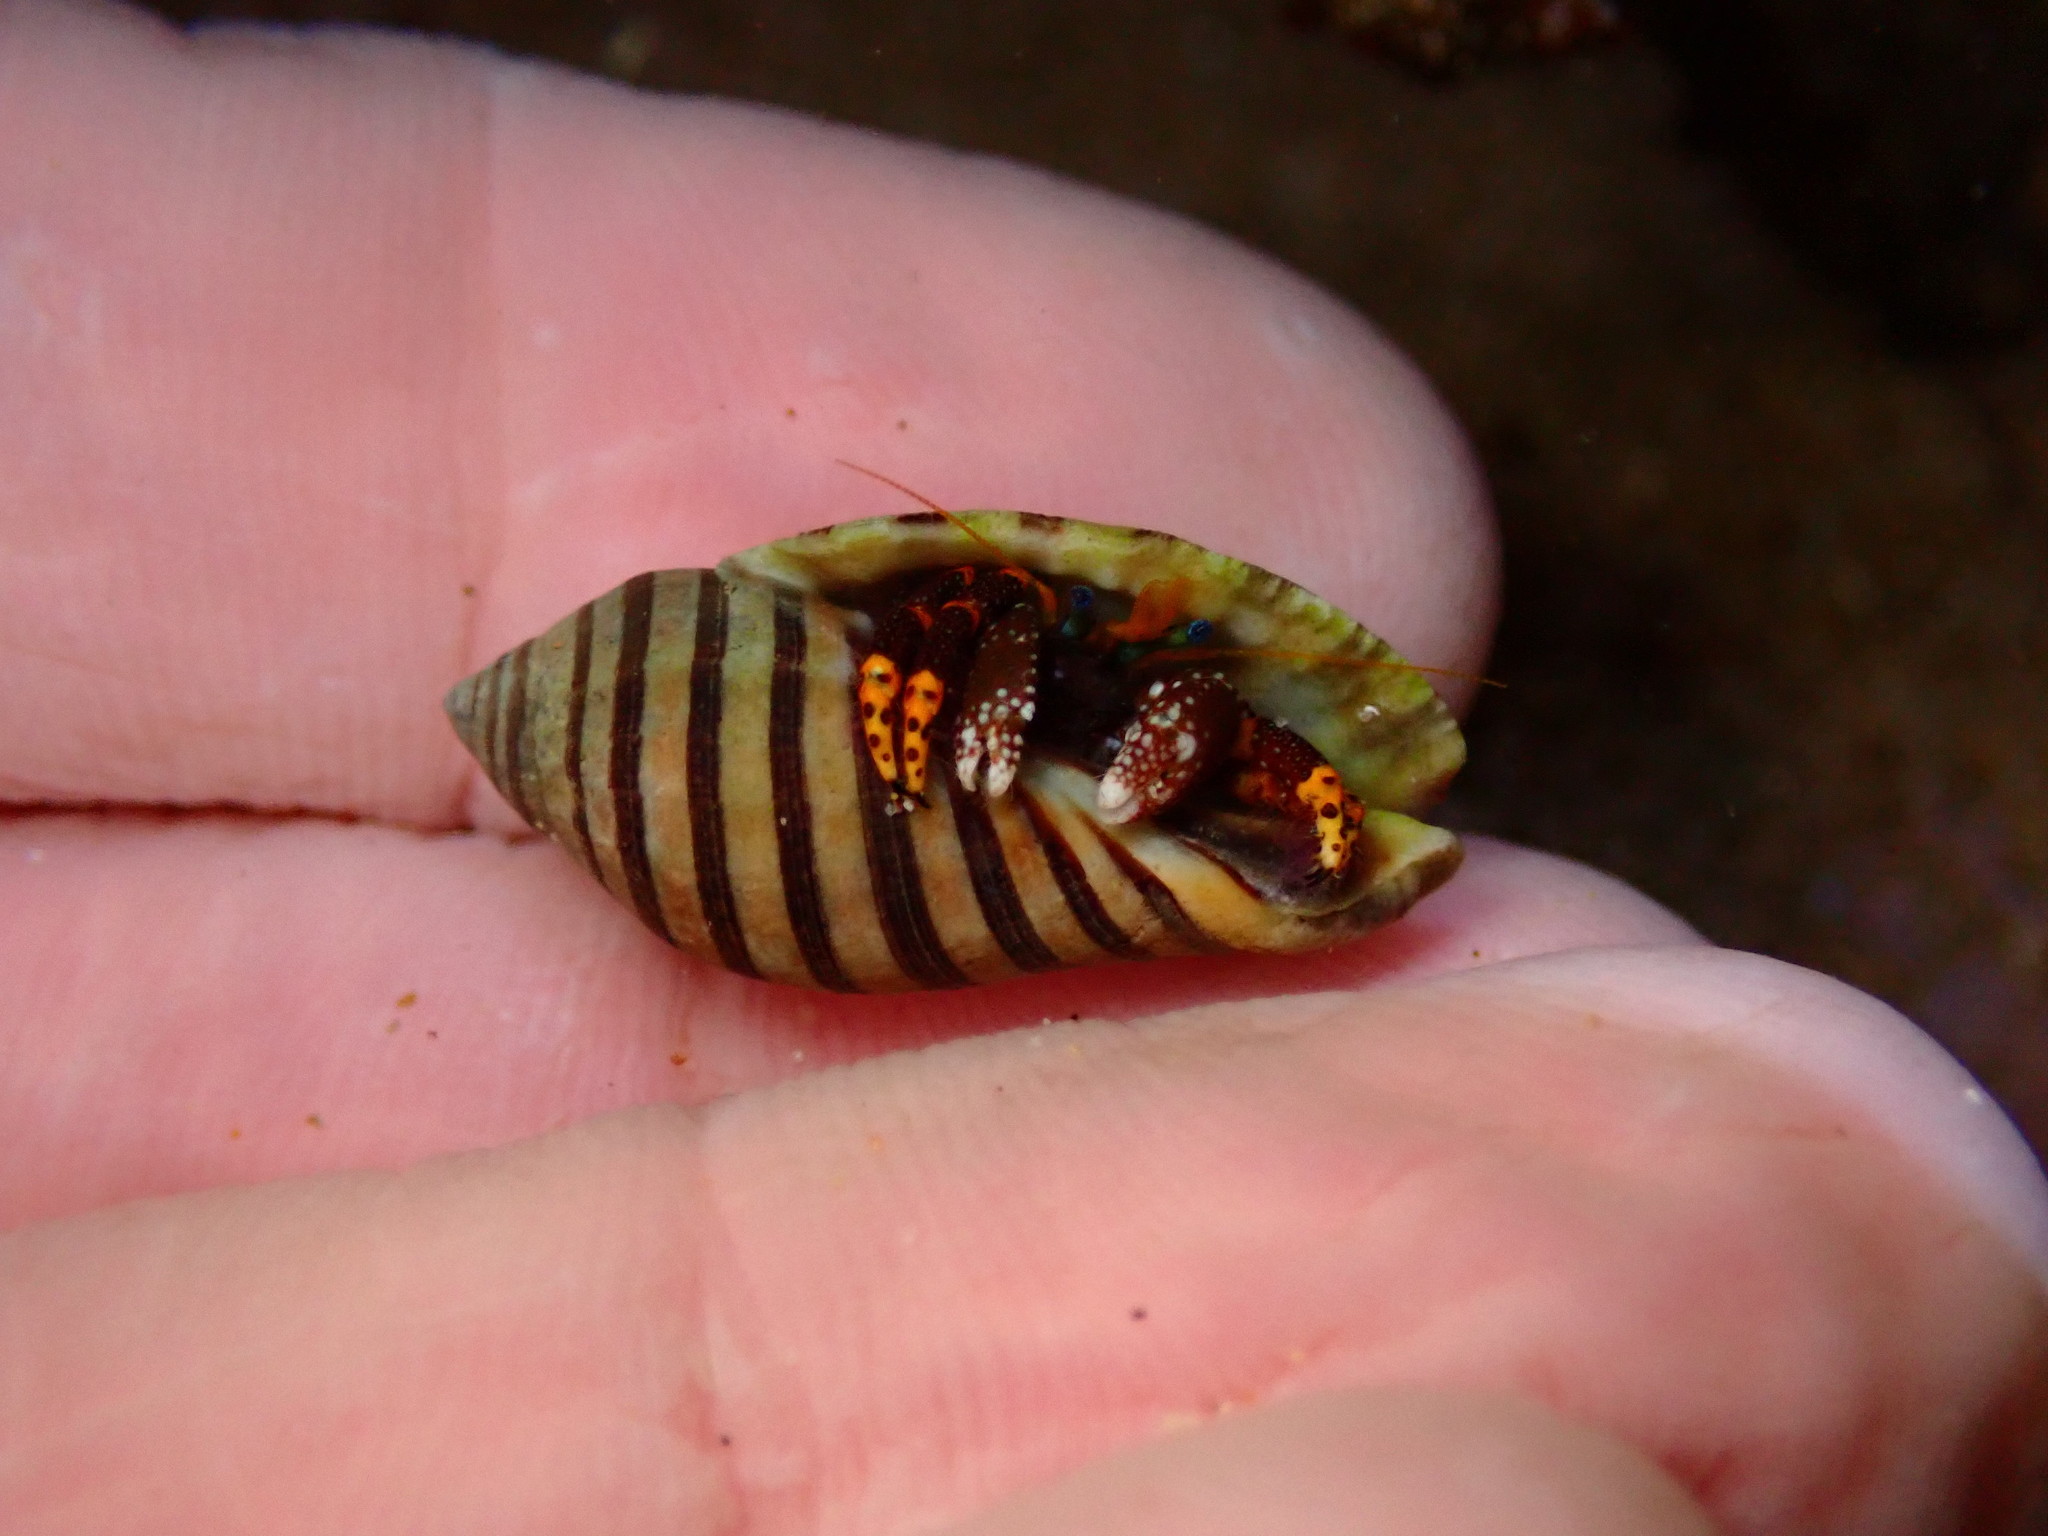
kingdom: Animalia
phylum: Mollusca
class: Gastropoda
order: Neogastropoda
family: Muricidae
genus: Vexilla
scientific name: Vexilla vexillum
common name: Ribboned jopas
